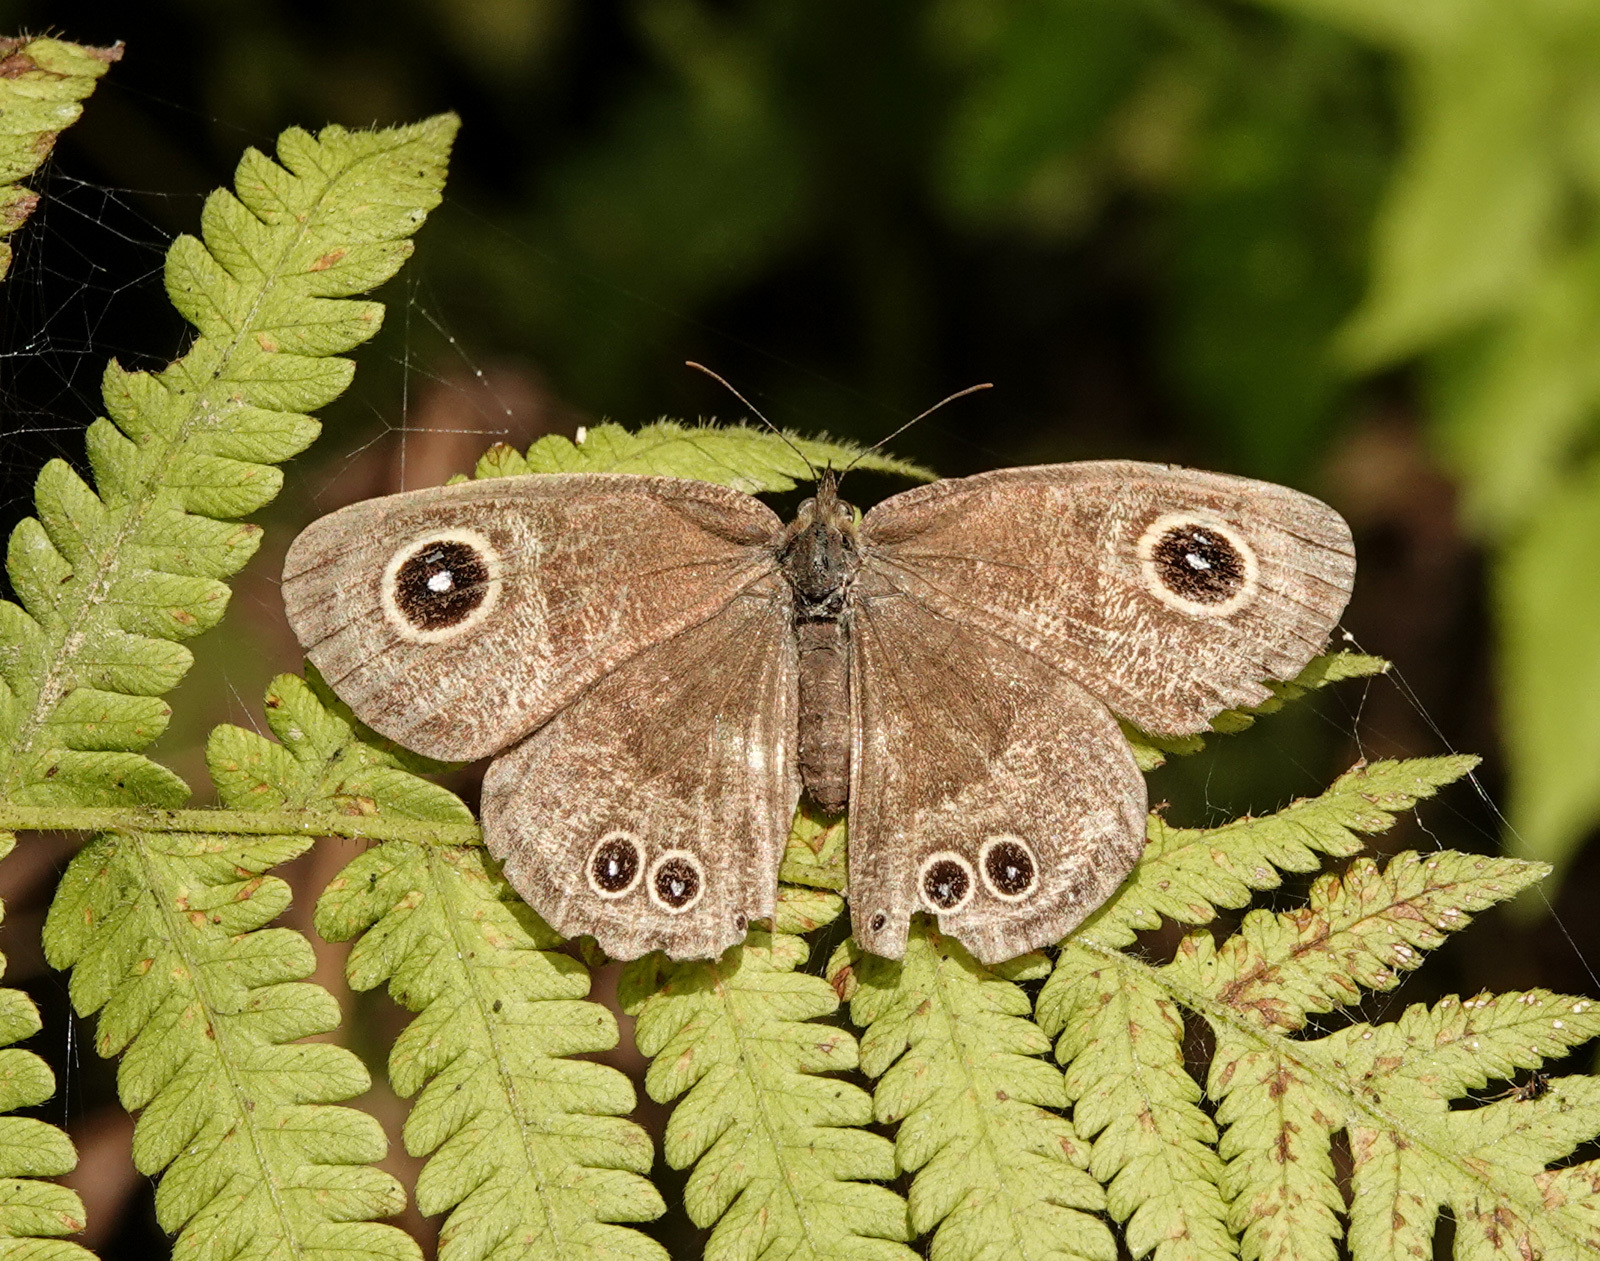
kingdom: Animalia
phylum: Arthropoda
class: Insecta
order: Lepidoptera
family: Nymphalidae
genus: Ypthima
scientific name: Ypthima huebneri
